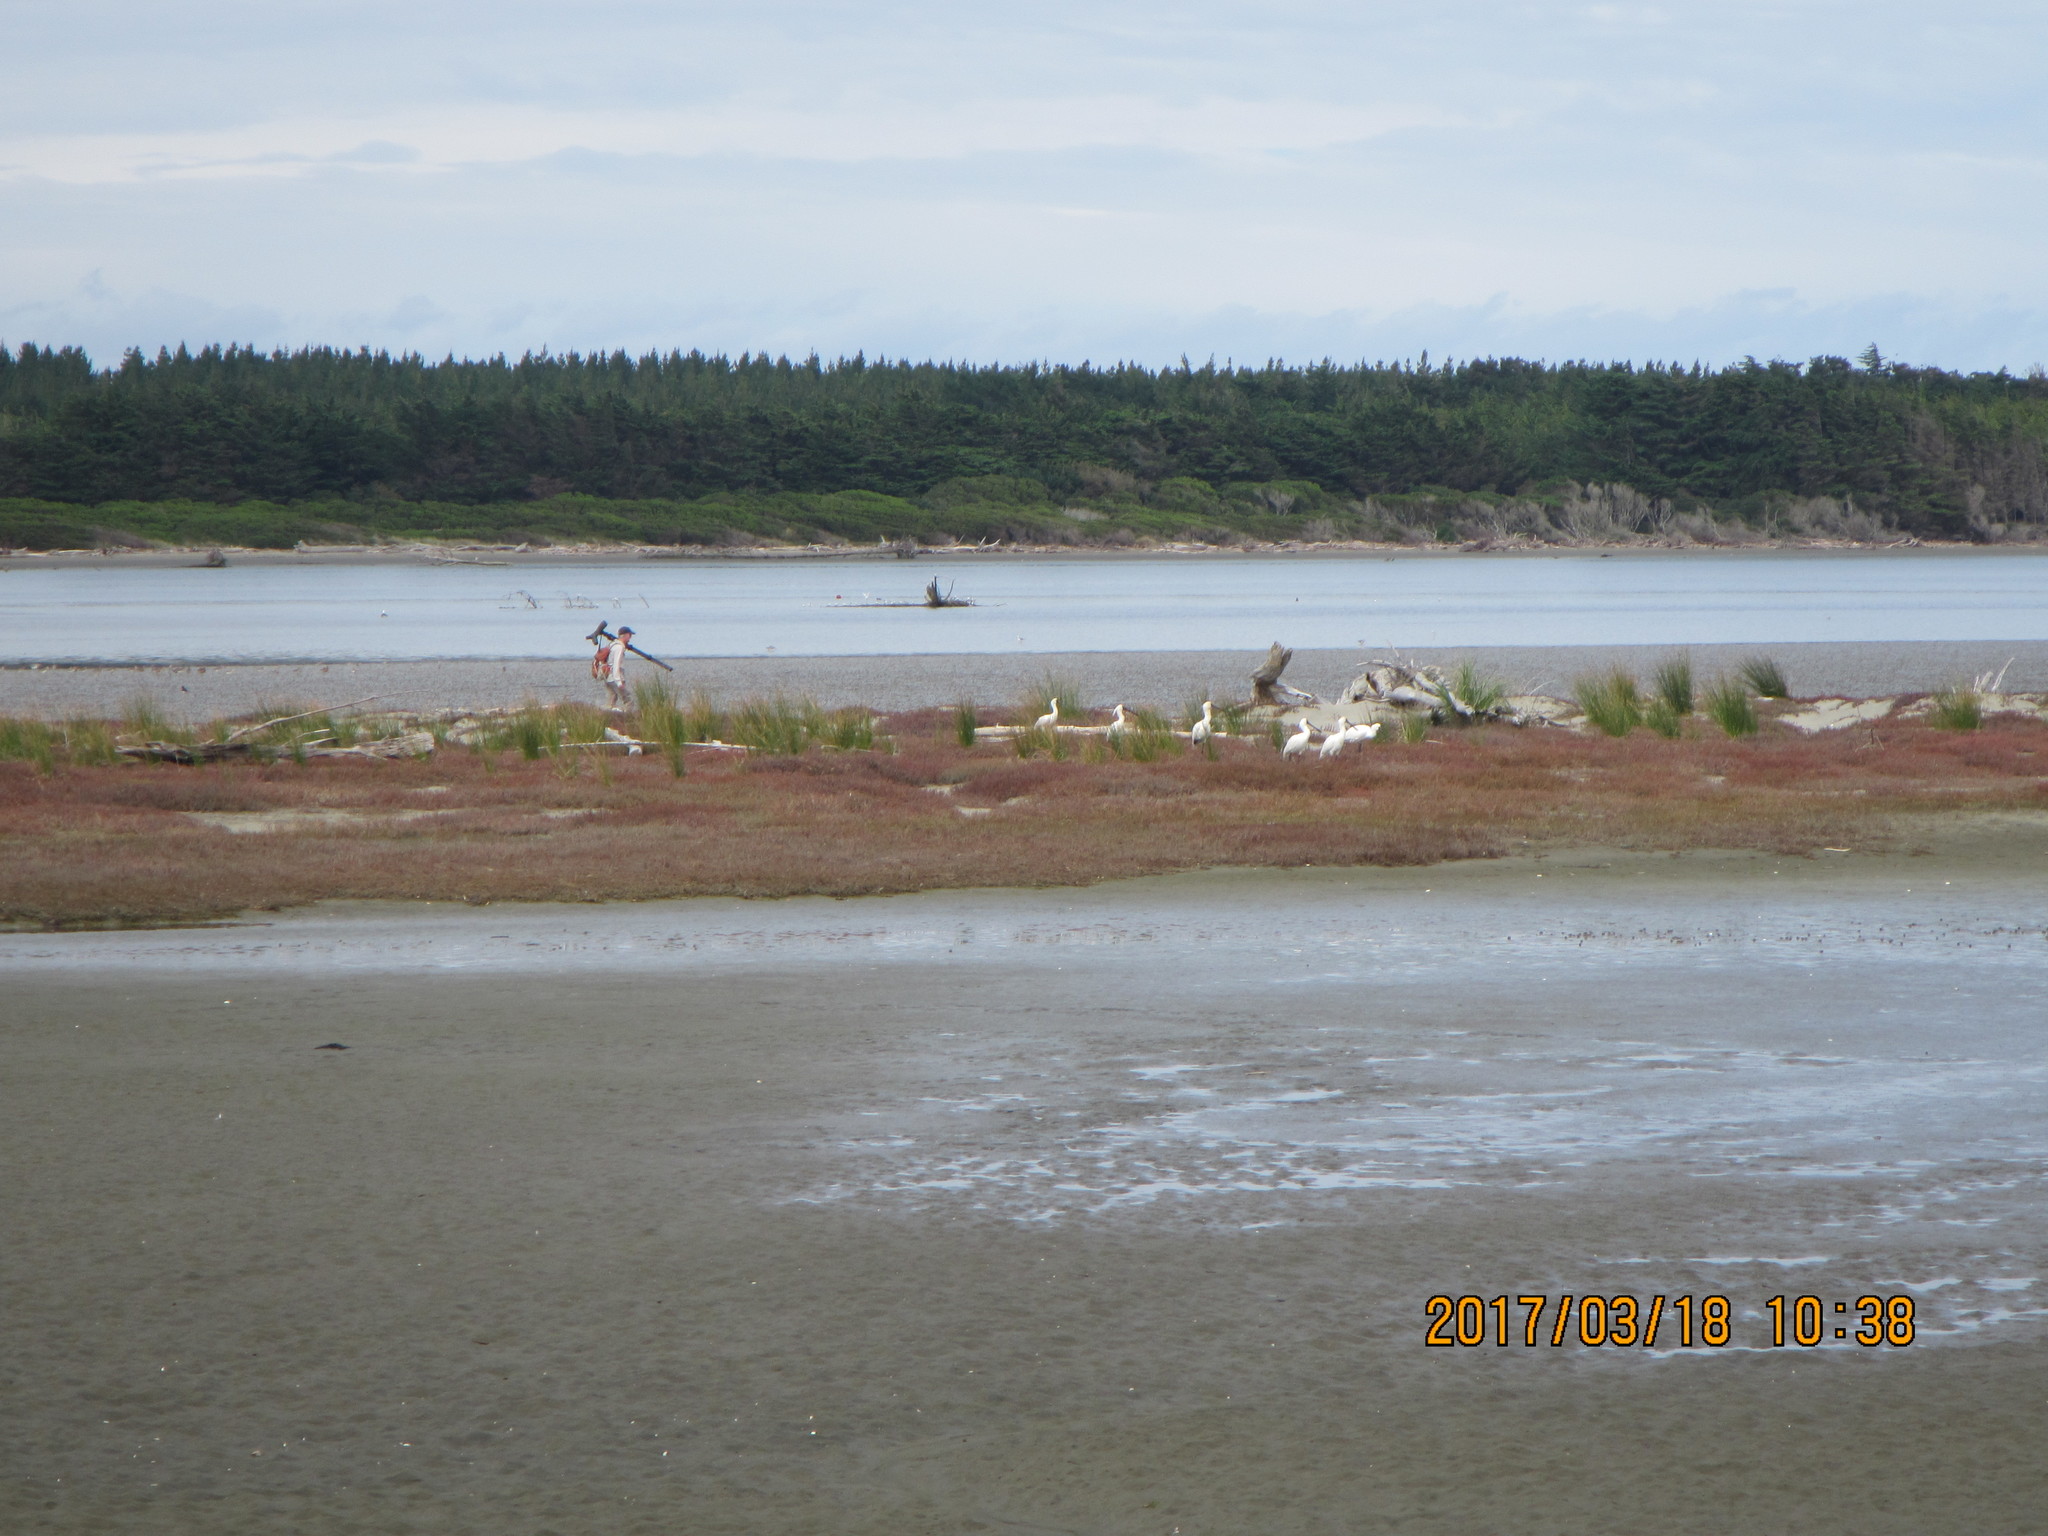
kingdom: Animalia
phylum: Chordata
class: Aves
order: Pelecaniformes
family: Threskiornithidae
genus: Platalea
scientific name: Platalea regia
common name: Royal spoonbill
